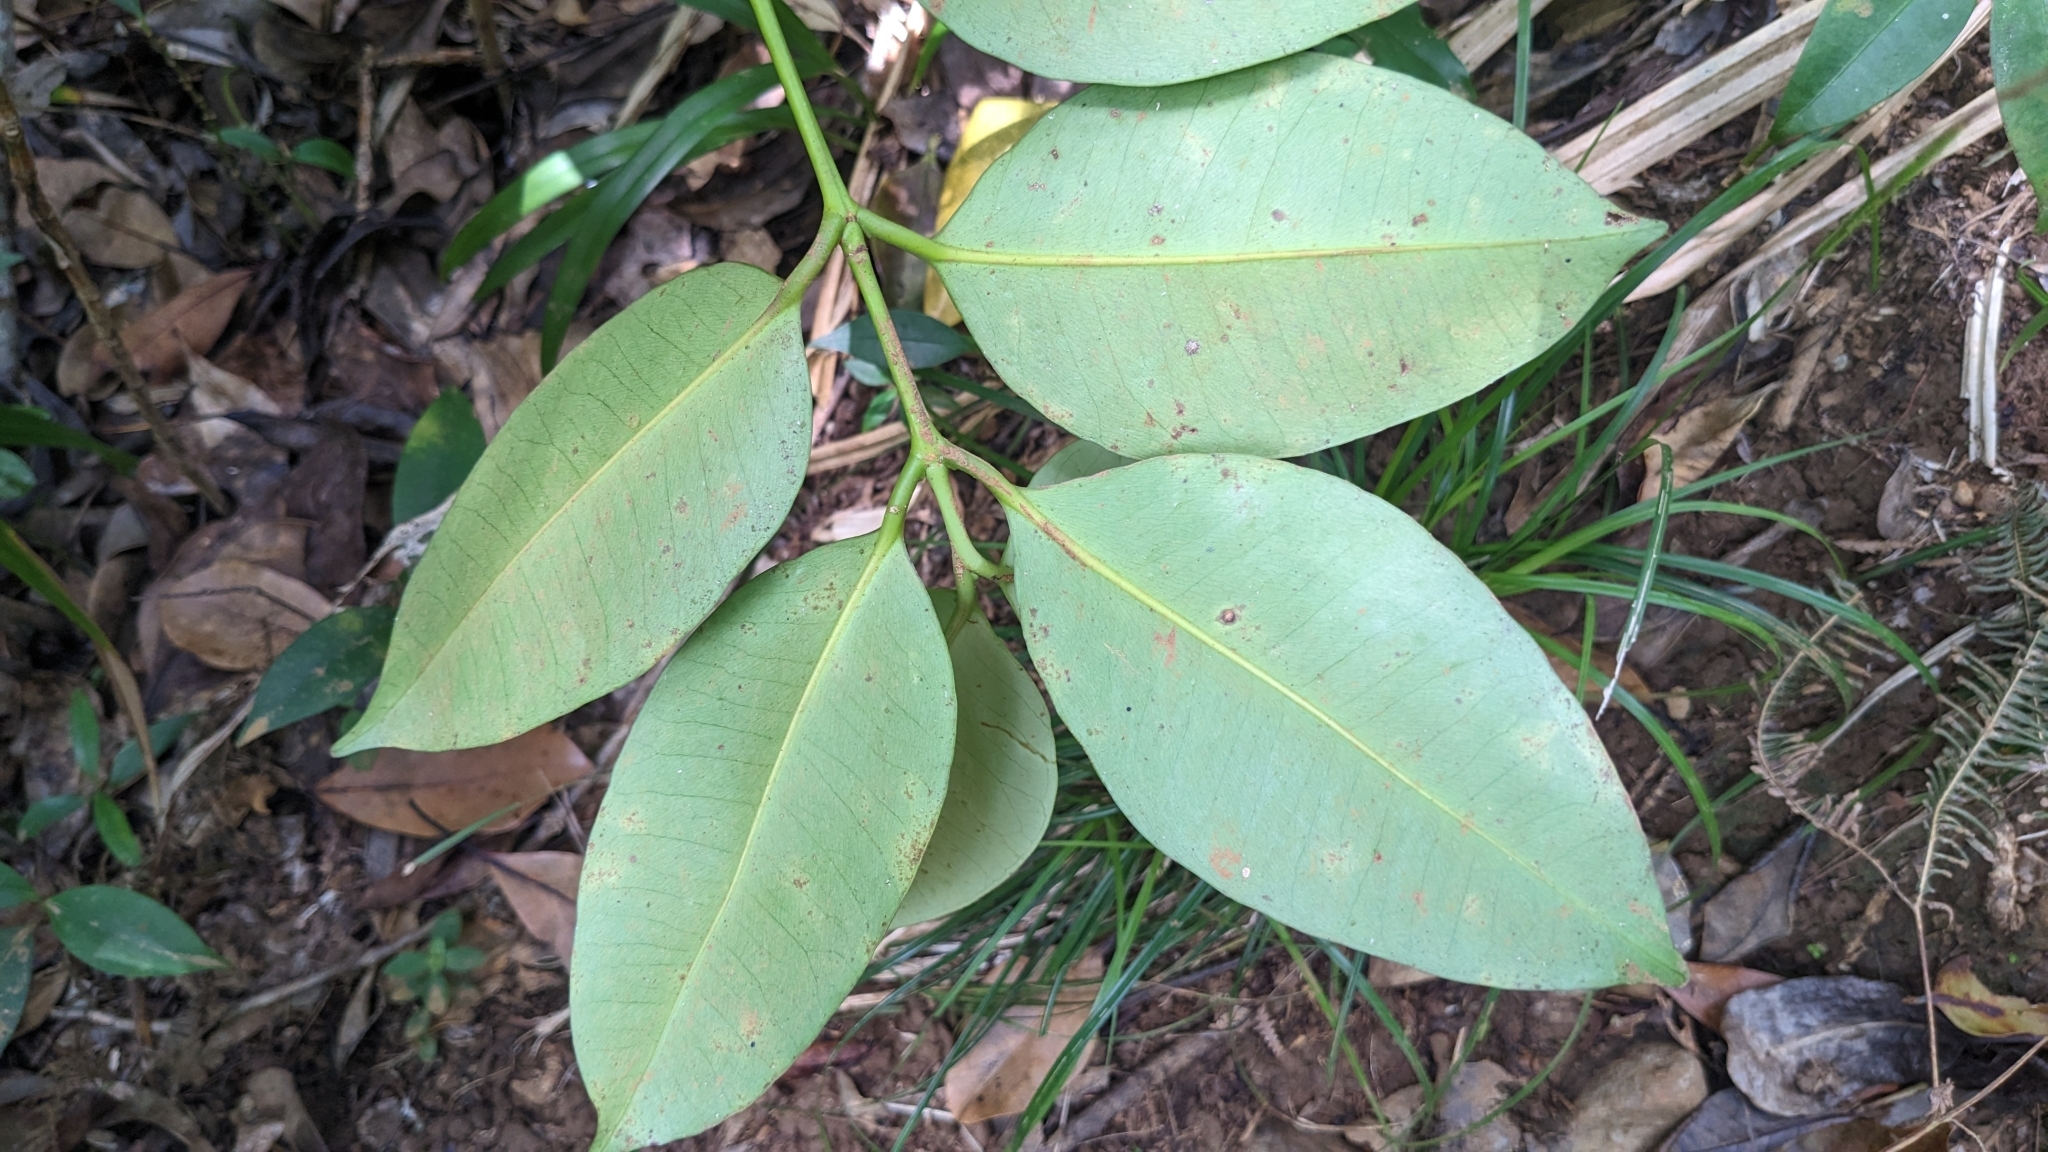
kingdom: Plantae
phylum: Tracheophyta
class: Magnoliopsida
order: Malpighiales
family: Clusiaceae
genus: Garcinia
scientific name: Garcinia linii
